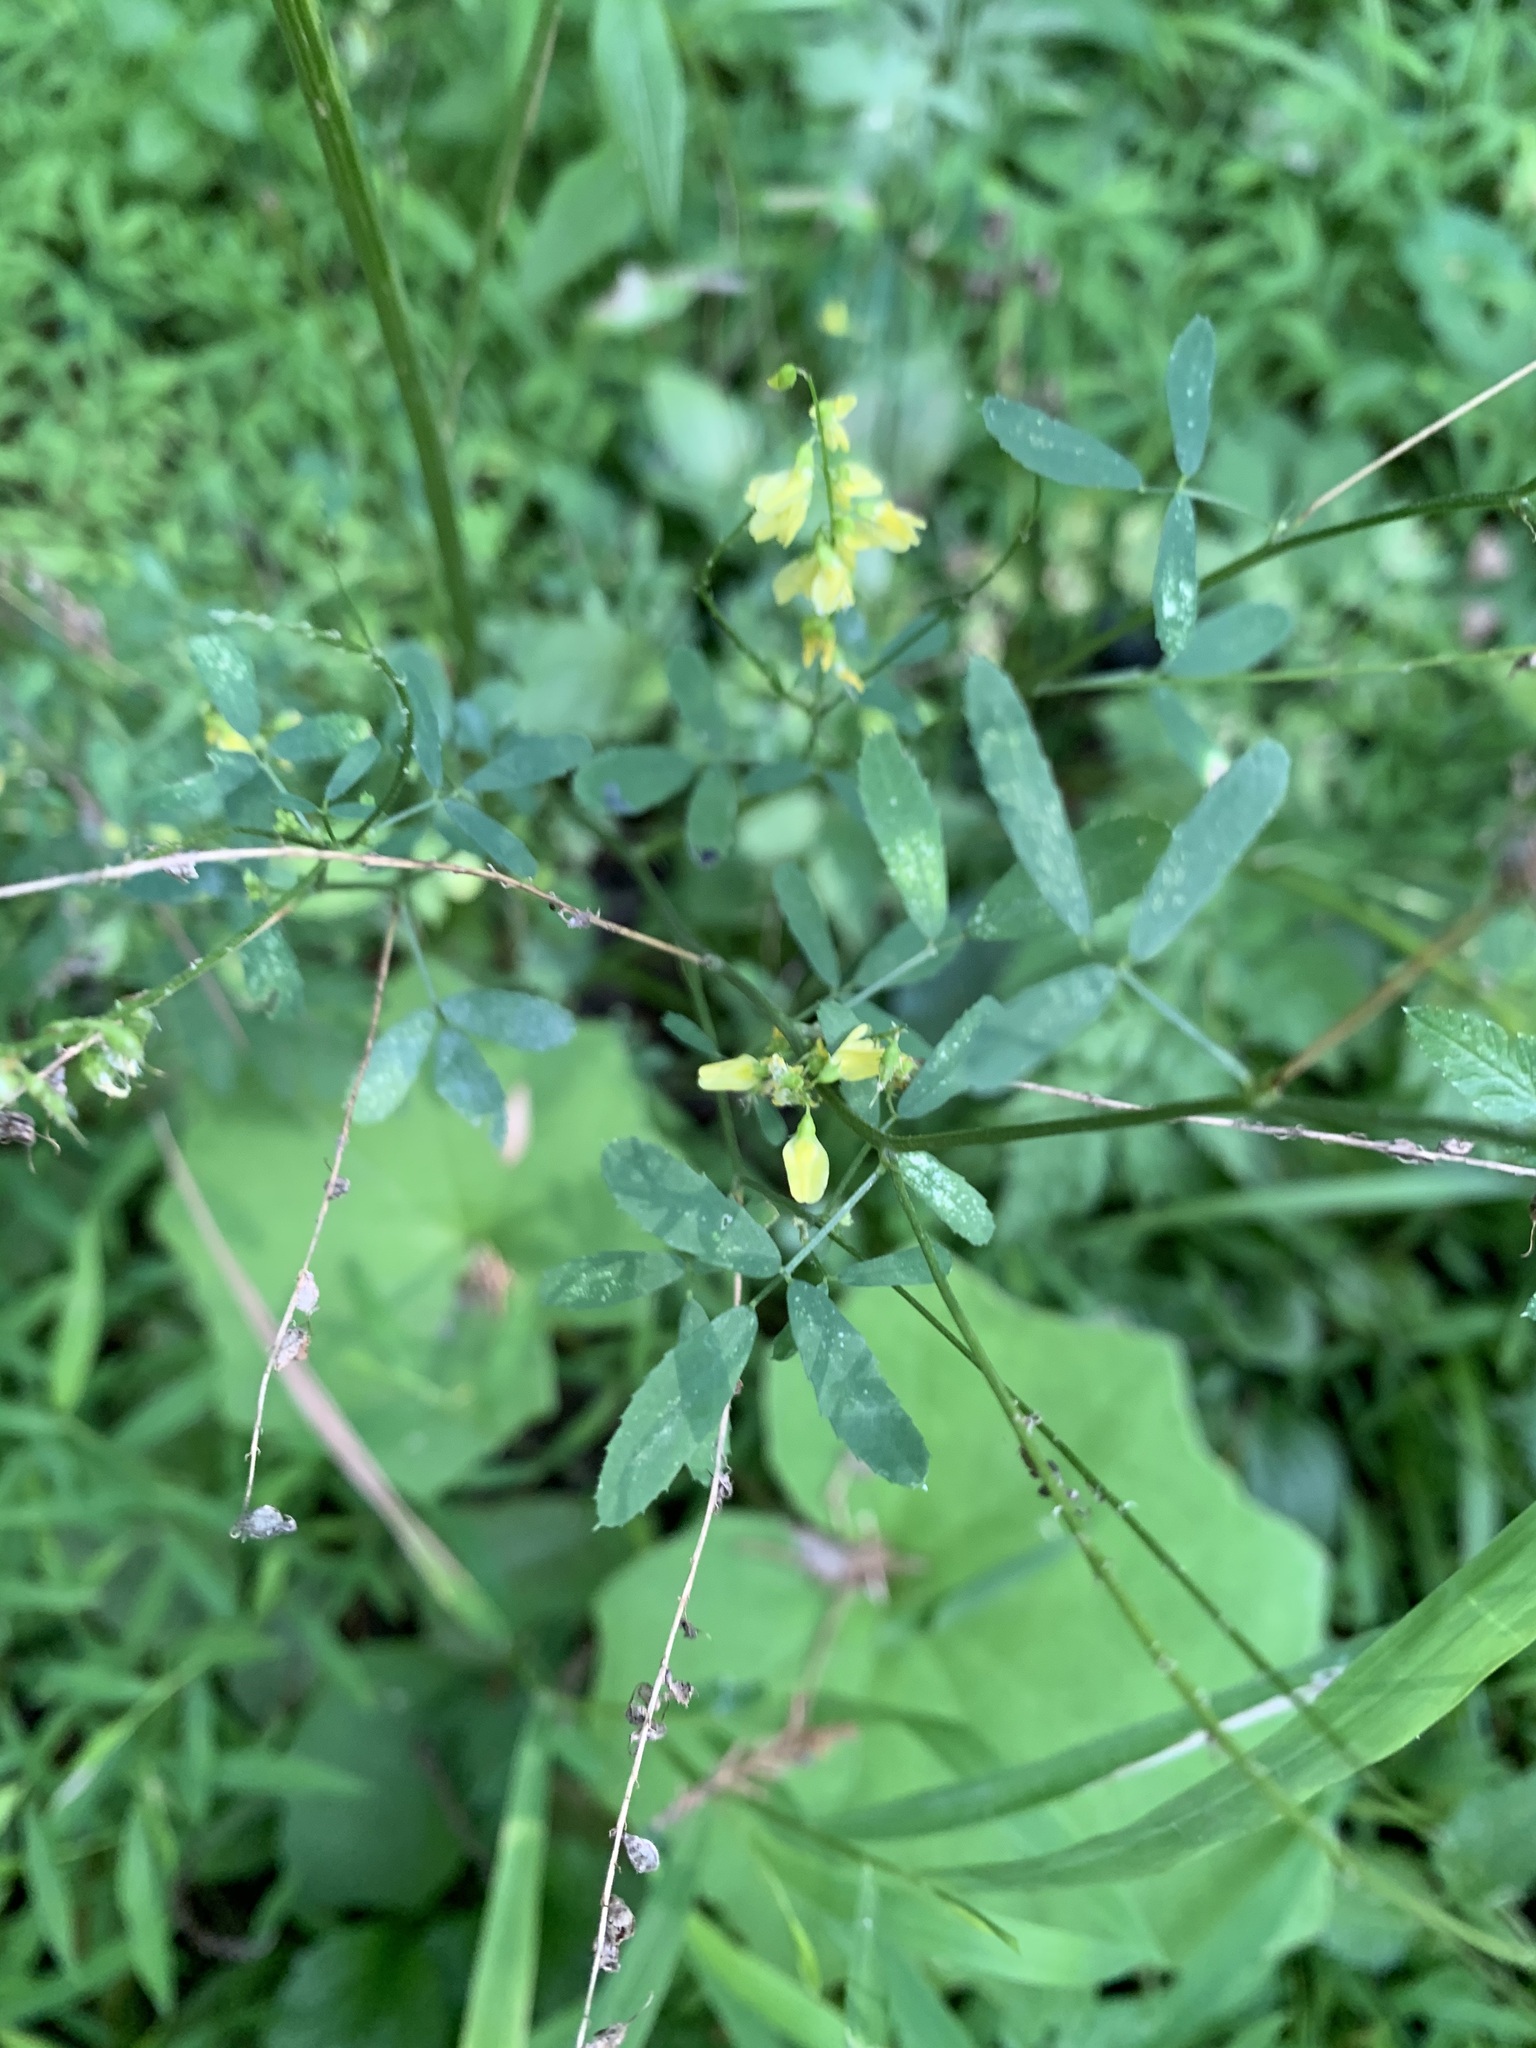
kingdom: Plantae
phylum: Tracheophyta
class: Magnoliopsida
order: Fabales
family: Fabaceae
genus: Melilotus
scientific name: Melilotus officinalis
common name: Sweetclover
